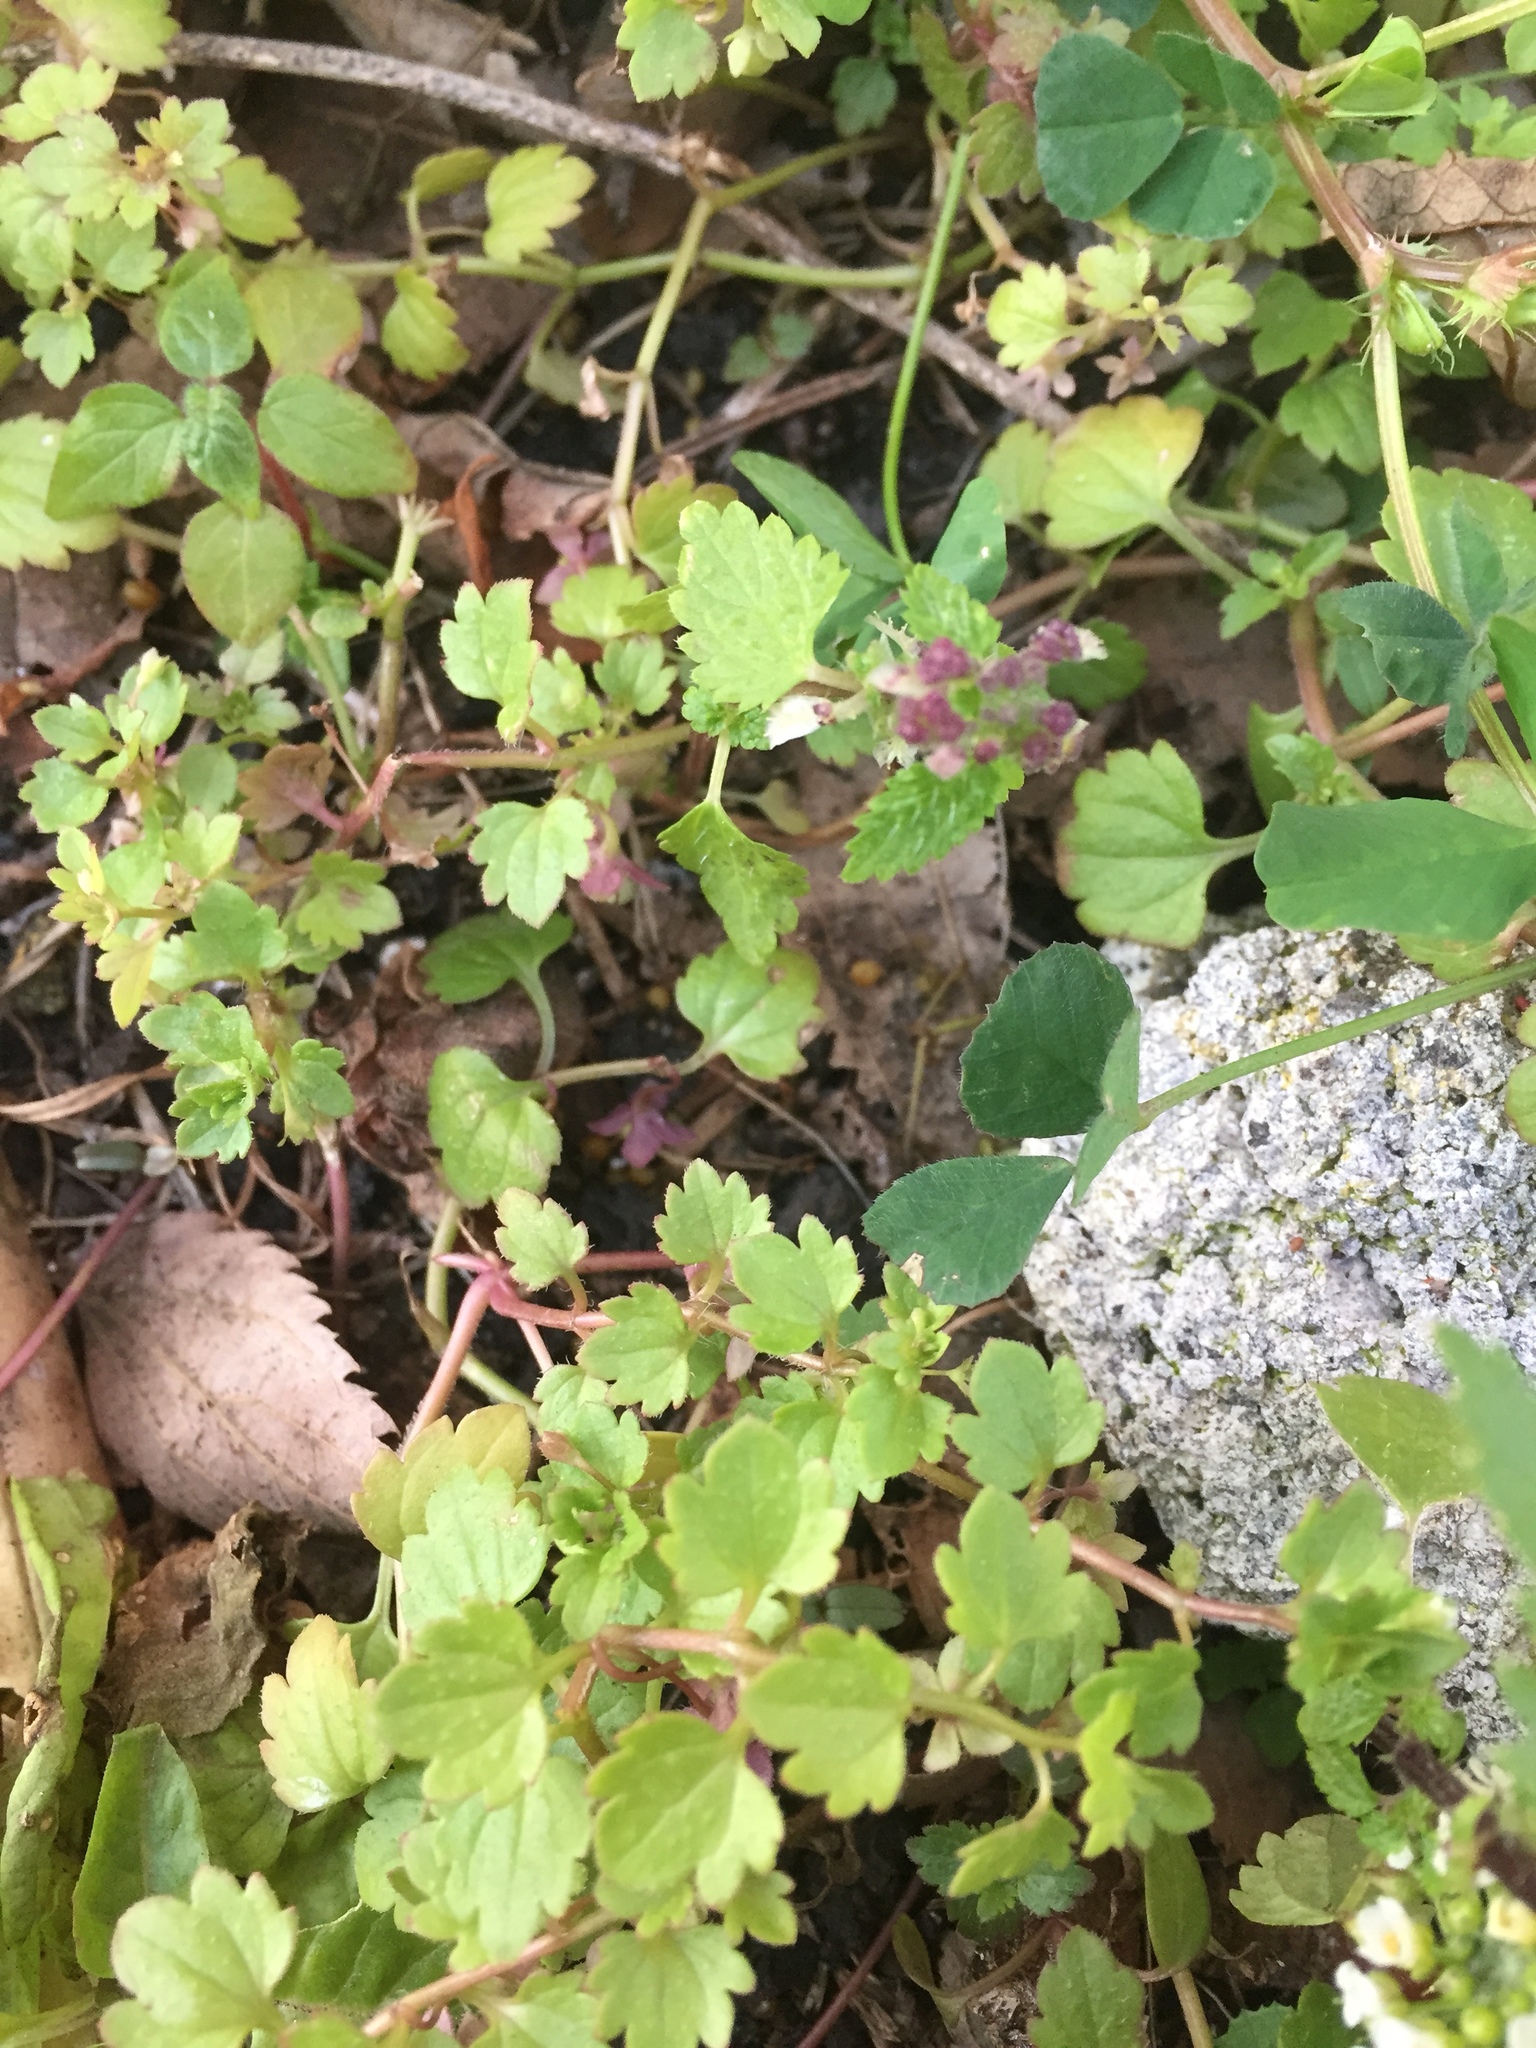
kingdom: Plantae
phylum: Tracheophyta
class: Magnoliopsida
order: Lamiales
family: Plantaginaceae
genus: Veronica
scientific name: Veronica panormitana
